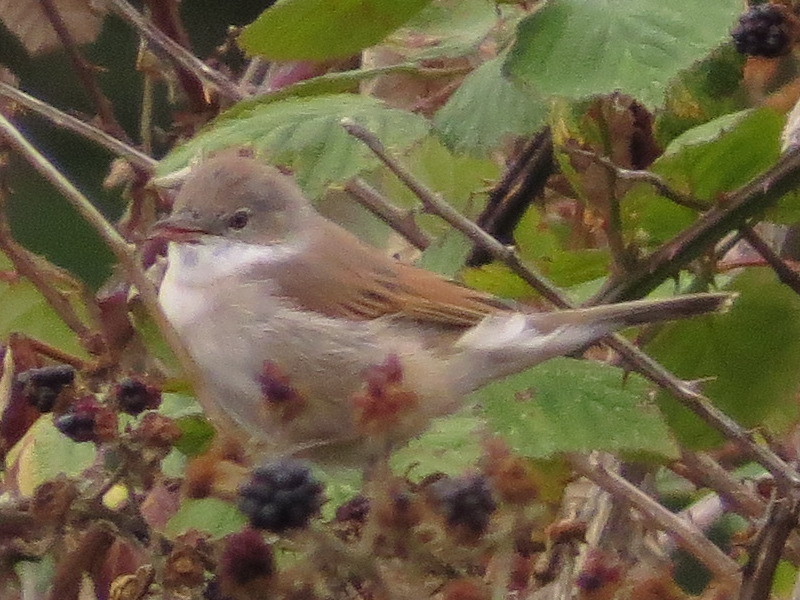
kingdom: Animalia
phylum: Chordata
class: Aves
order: Passeriformes
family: Sylviidae
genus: Sylvia
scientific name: Sylvia communis
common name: Common whitethroat
